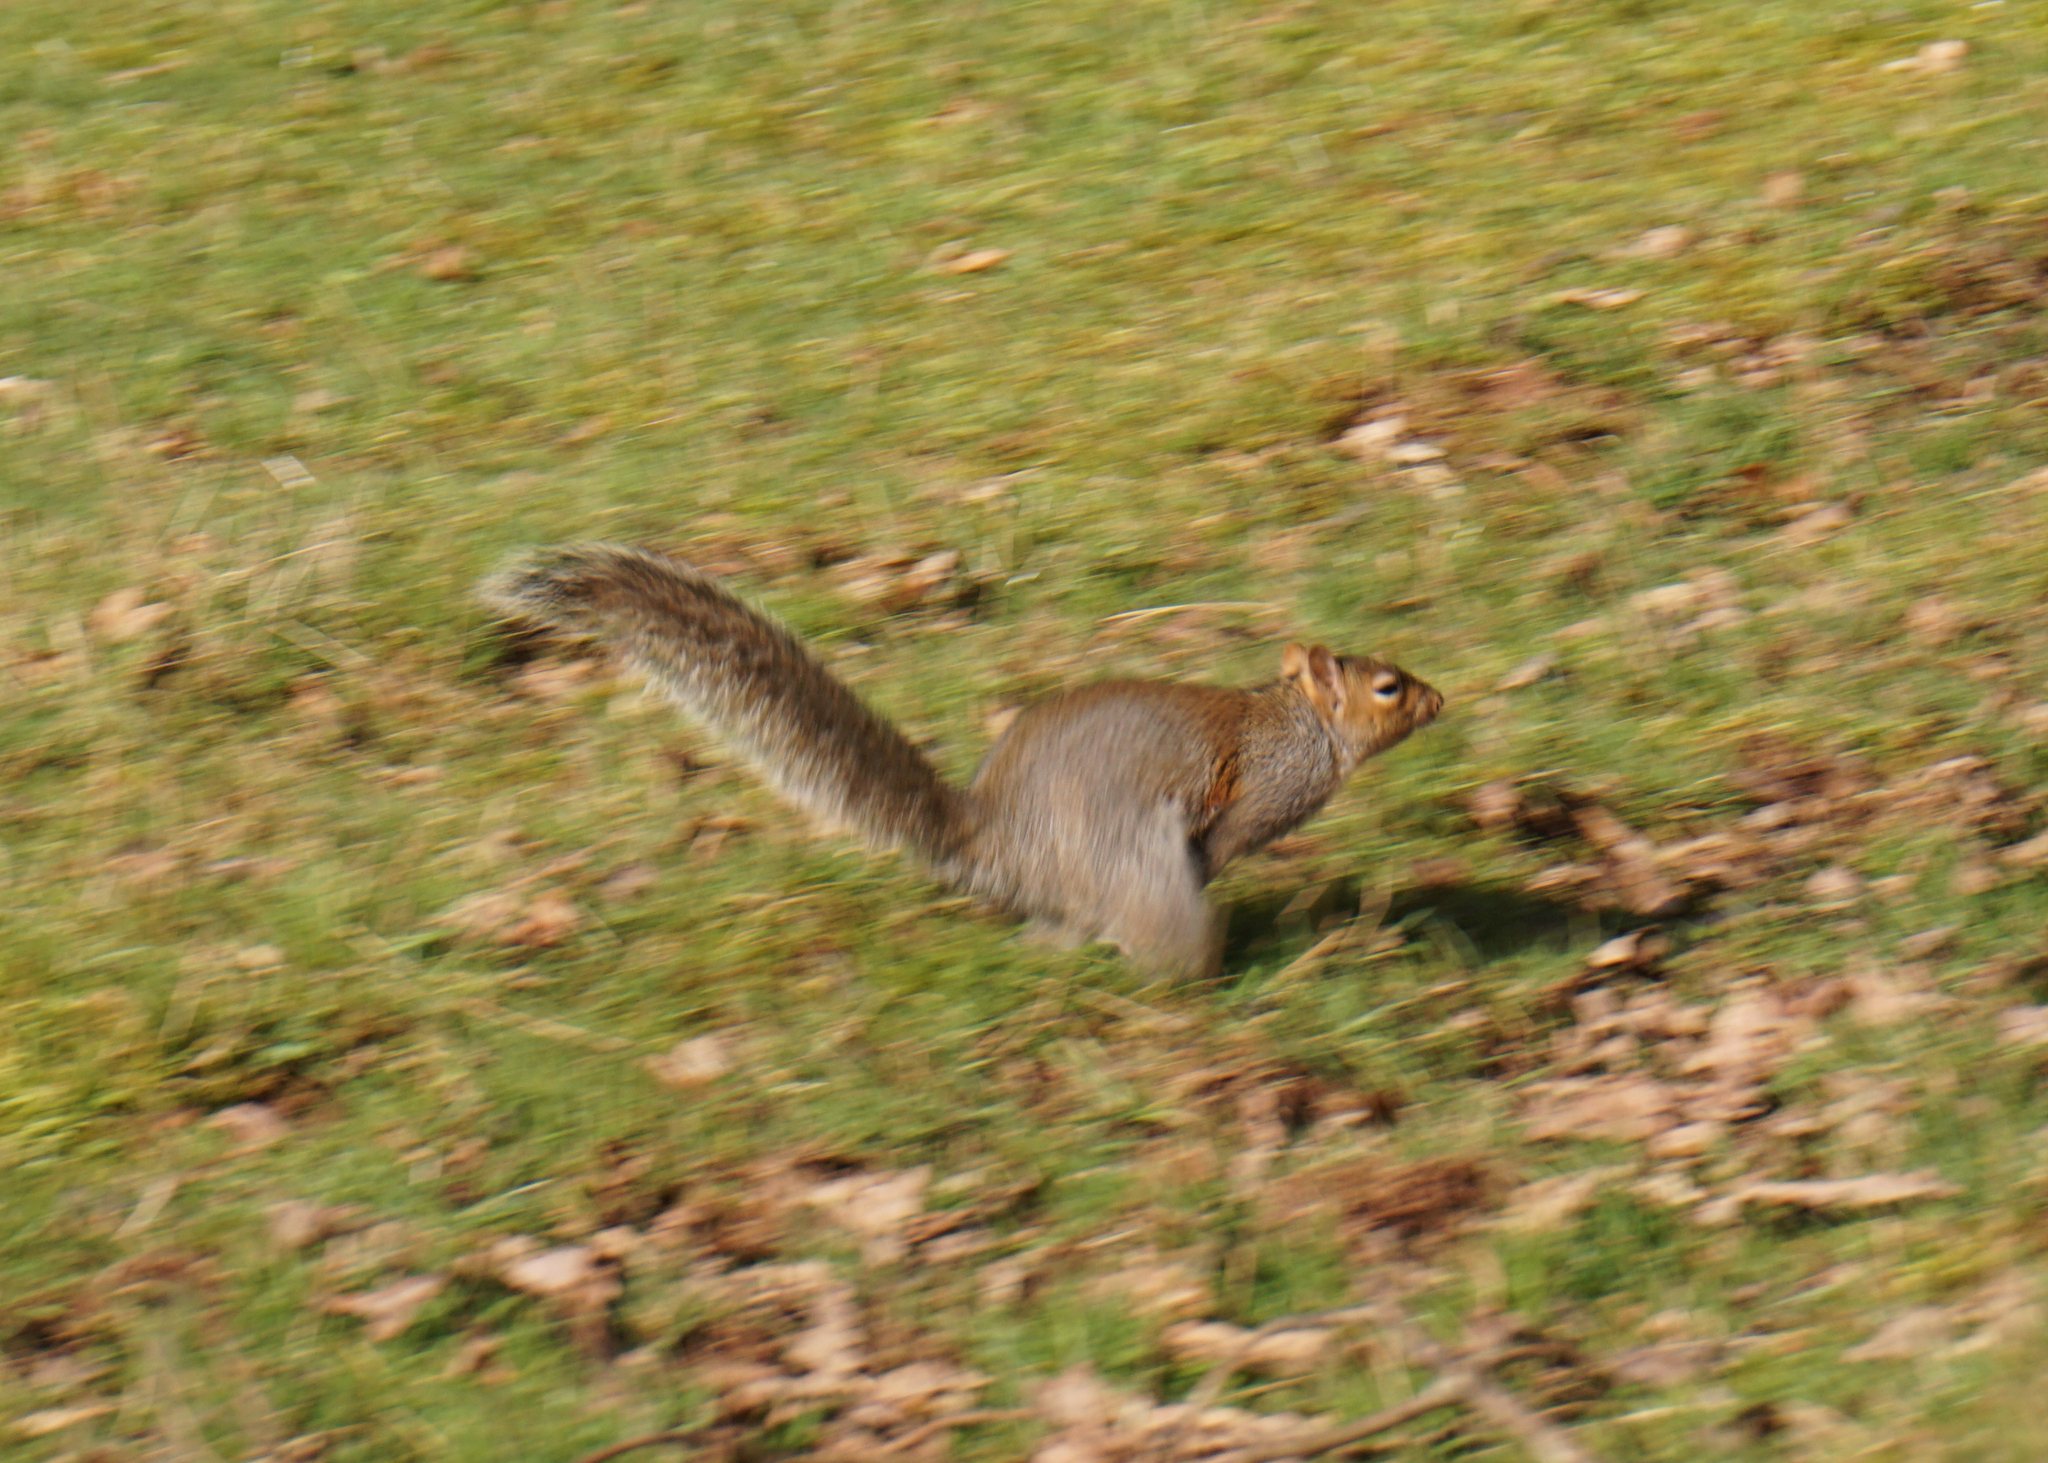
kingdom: Animalia
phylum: Chordata
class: Mammalia
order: Rodentia
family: Sciuridae
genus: Sciurus
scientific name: Sciurus carolinensis
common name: Eastern gray squirrel
